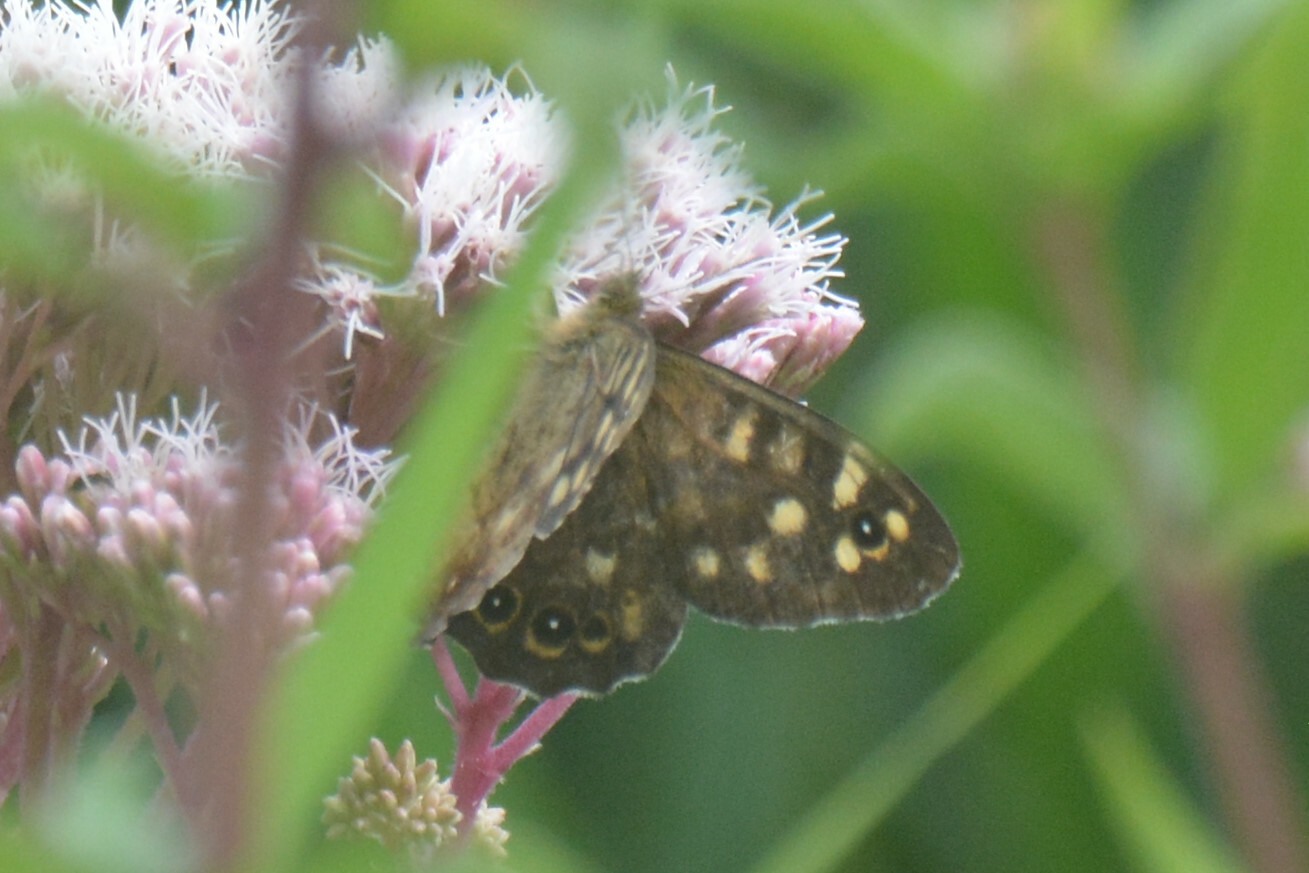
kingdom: Animalia
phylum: Arthropoda
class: Insecta
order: Lepidoptera
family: Nymphalidae
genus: Pararge
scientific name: Pararge aegeria
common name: Speckled wood
